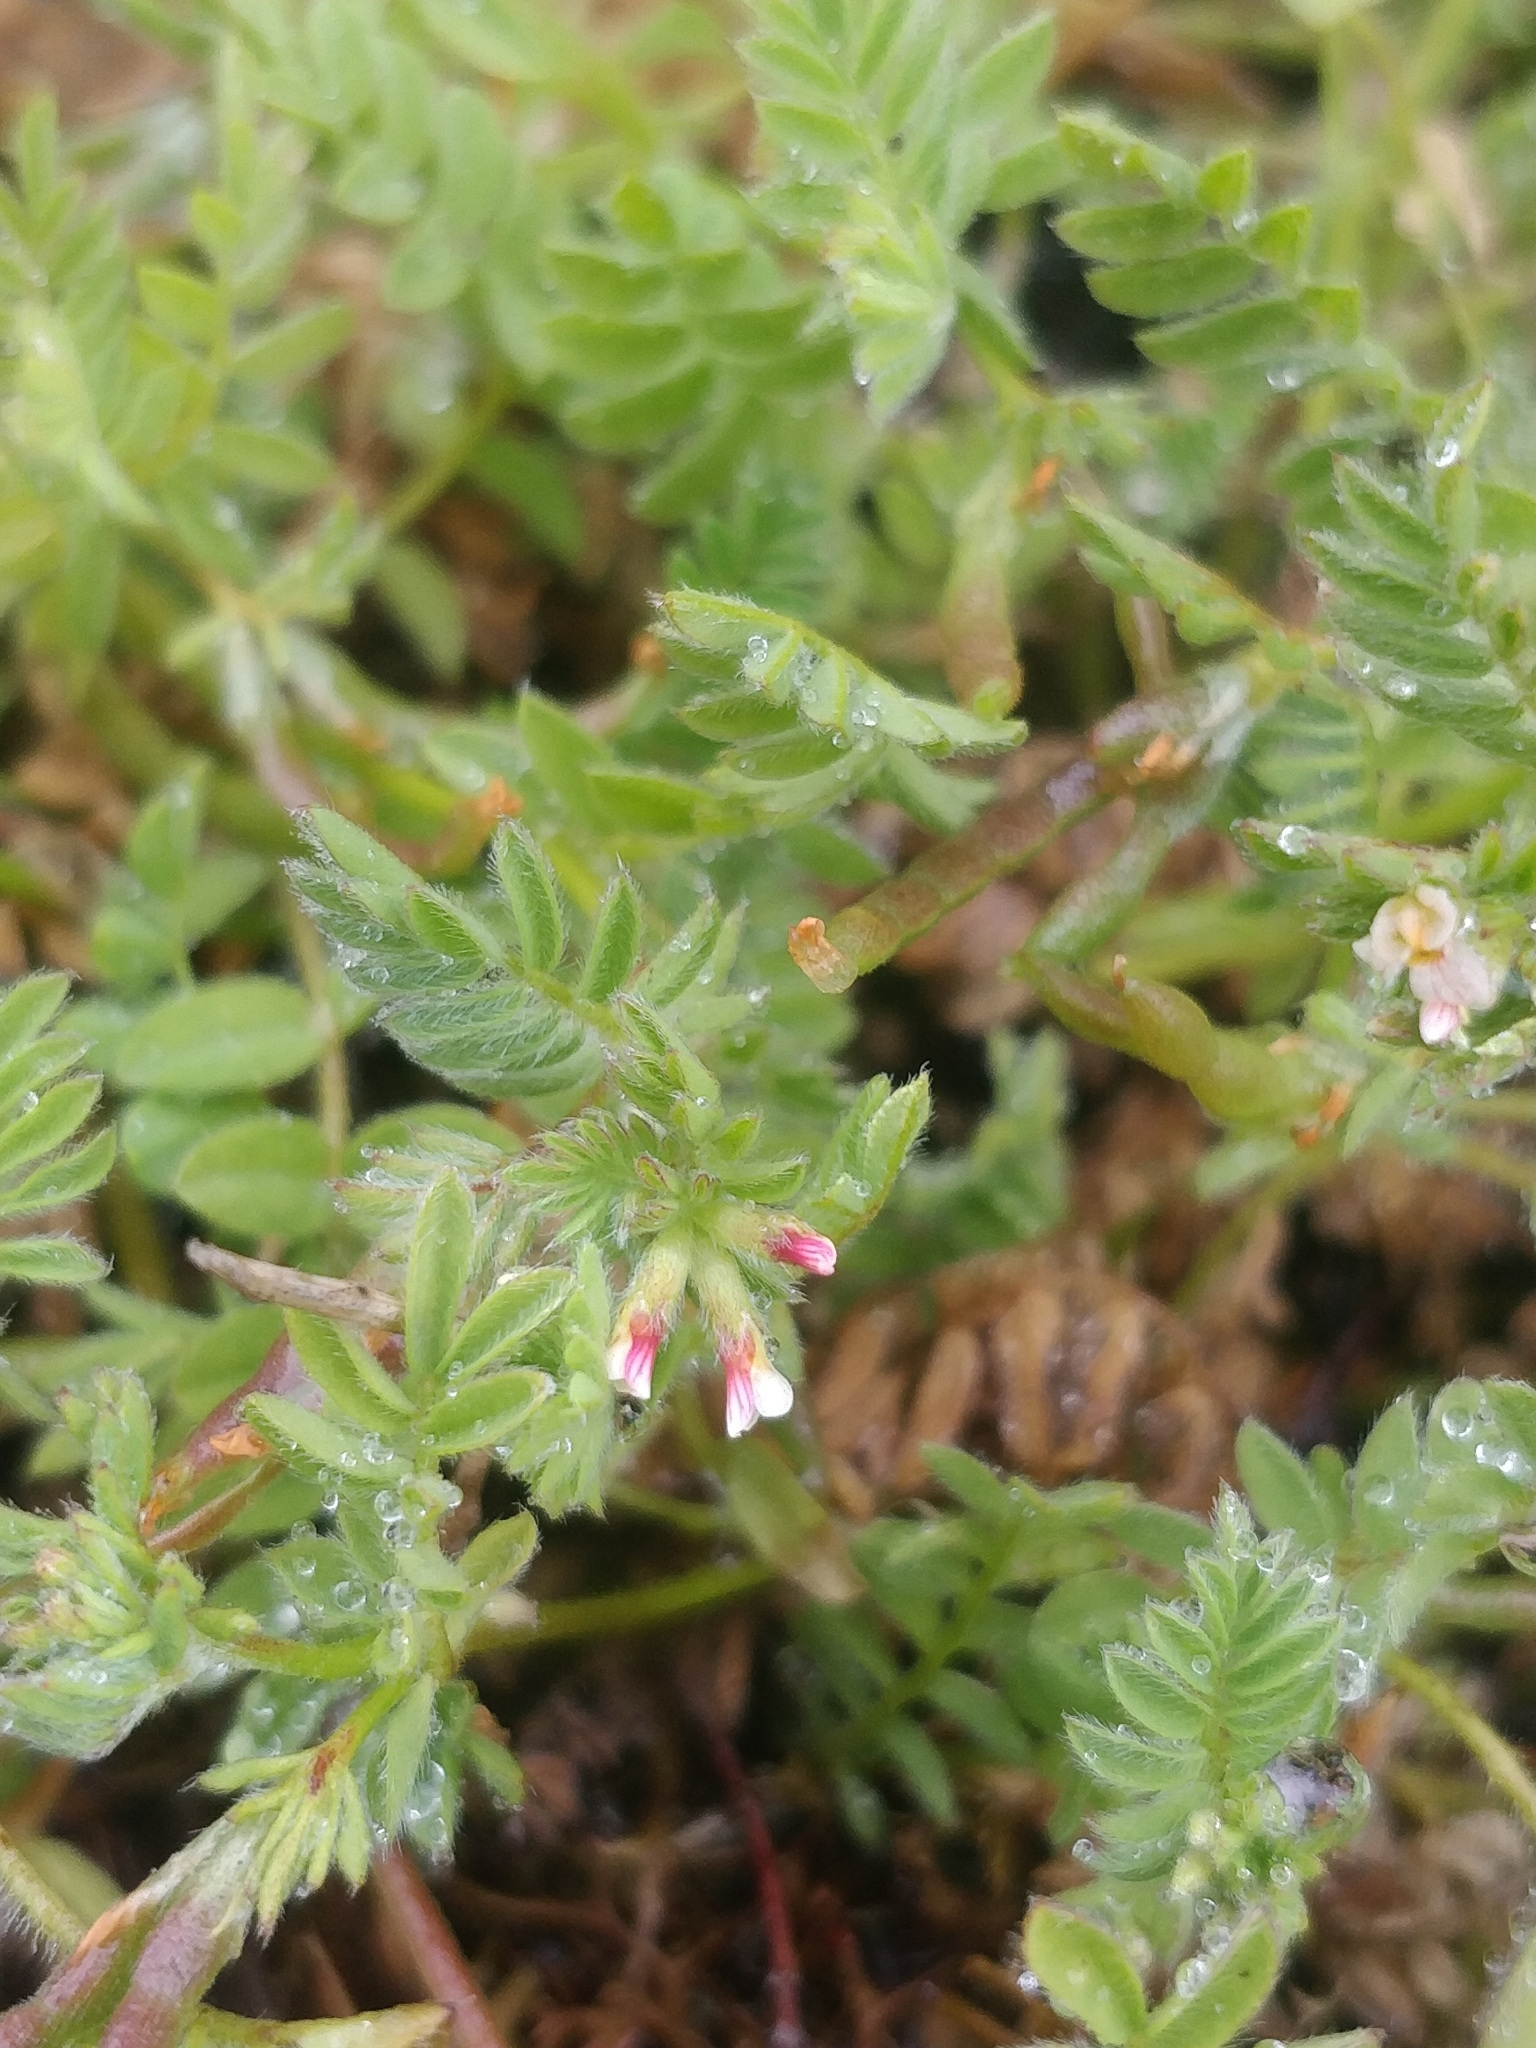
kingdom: Plantae
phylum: Tracheophyta
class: Magnoliopsida
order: Fabales
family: Fabaceae
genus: Ornithopus
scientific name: Ornithopus perpusillus
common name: Bird's-foot
